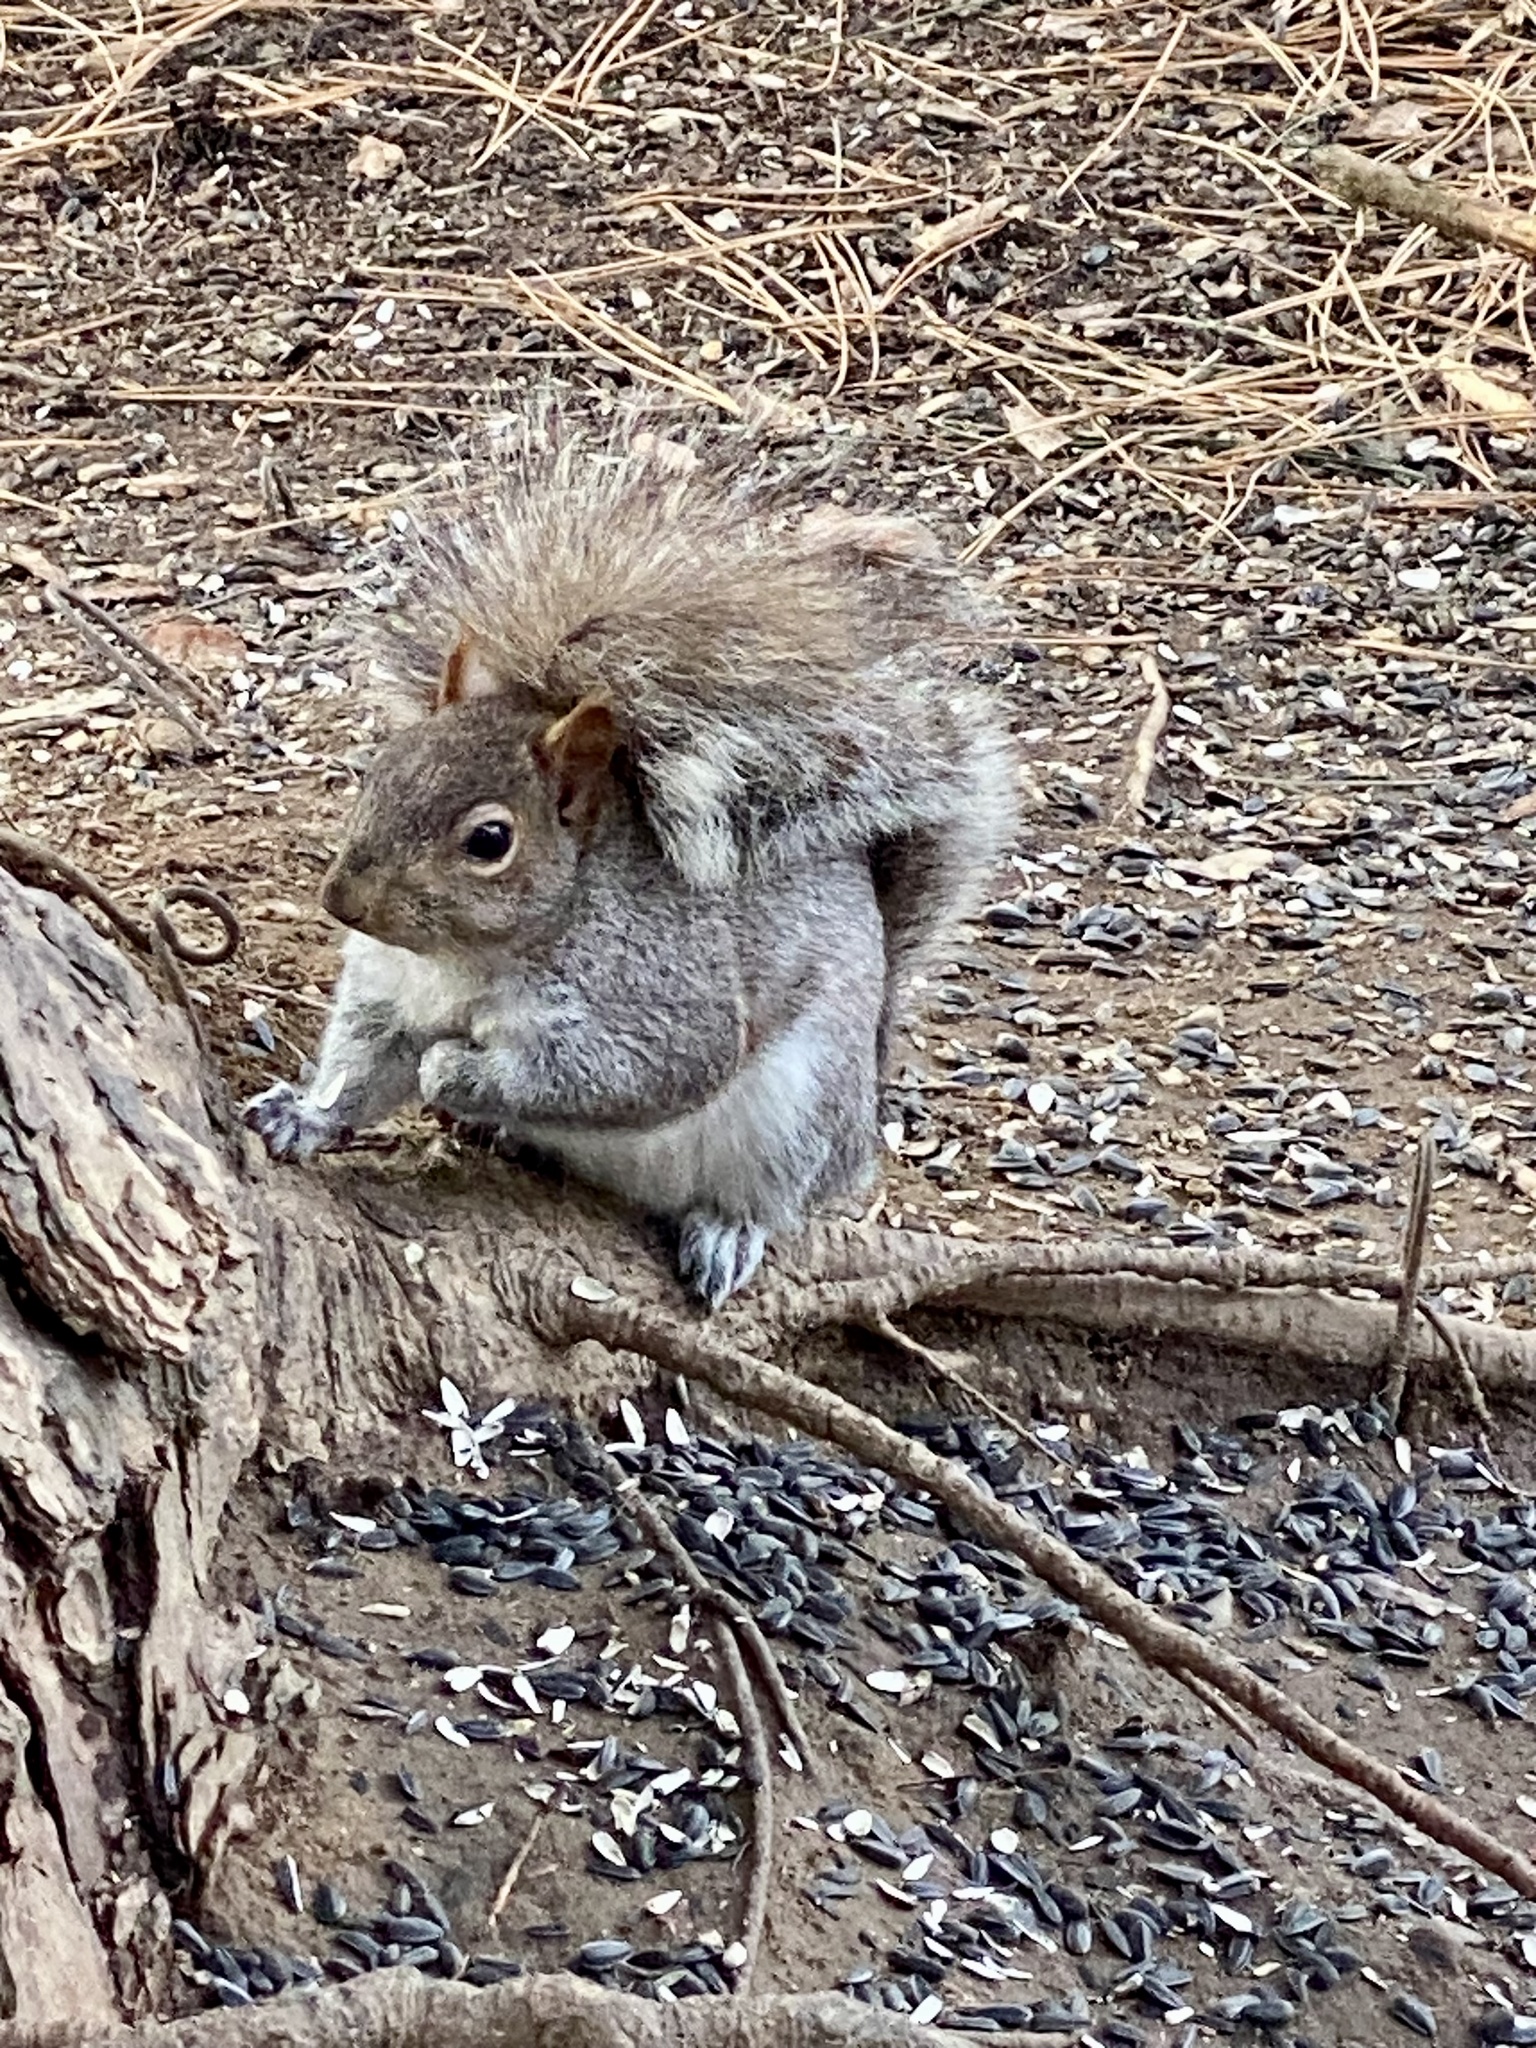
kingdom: Animalia
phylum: Chordata
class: Mammalia
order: Rodentia
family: Sciuridae
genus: Sciurus
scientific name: Sciurus carolinensis
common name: Eastern gray squirrel
